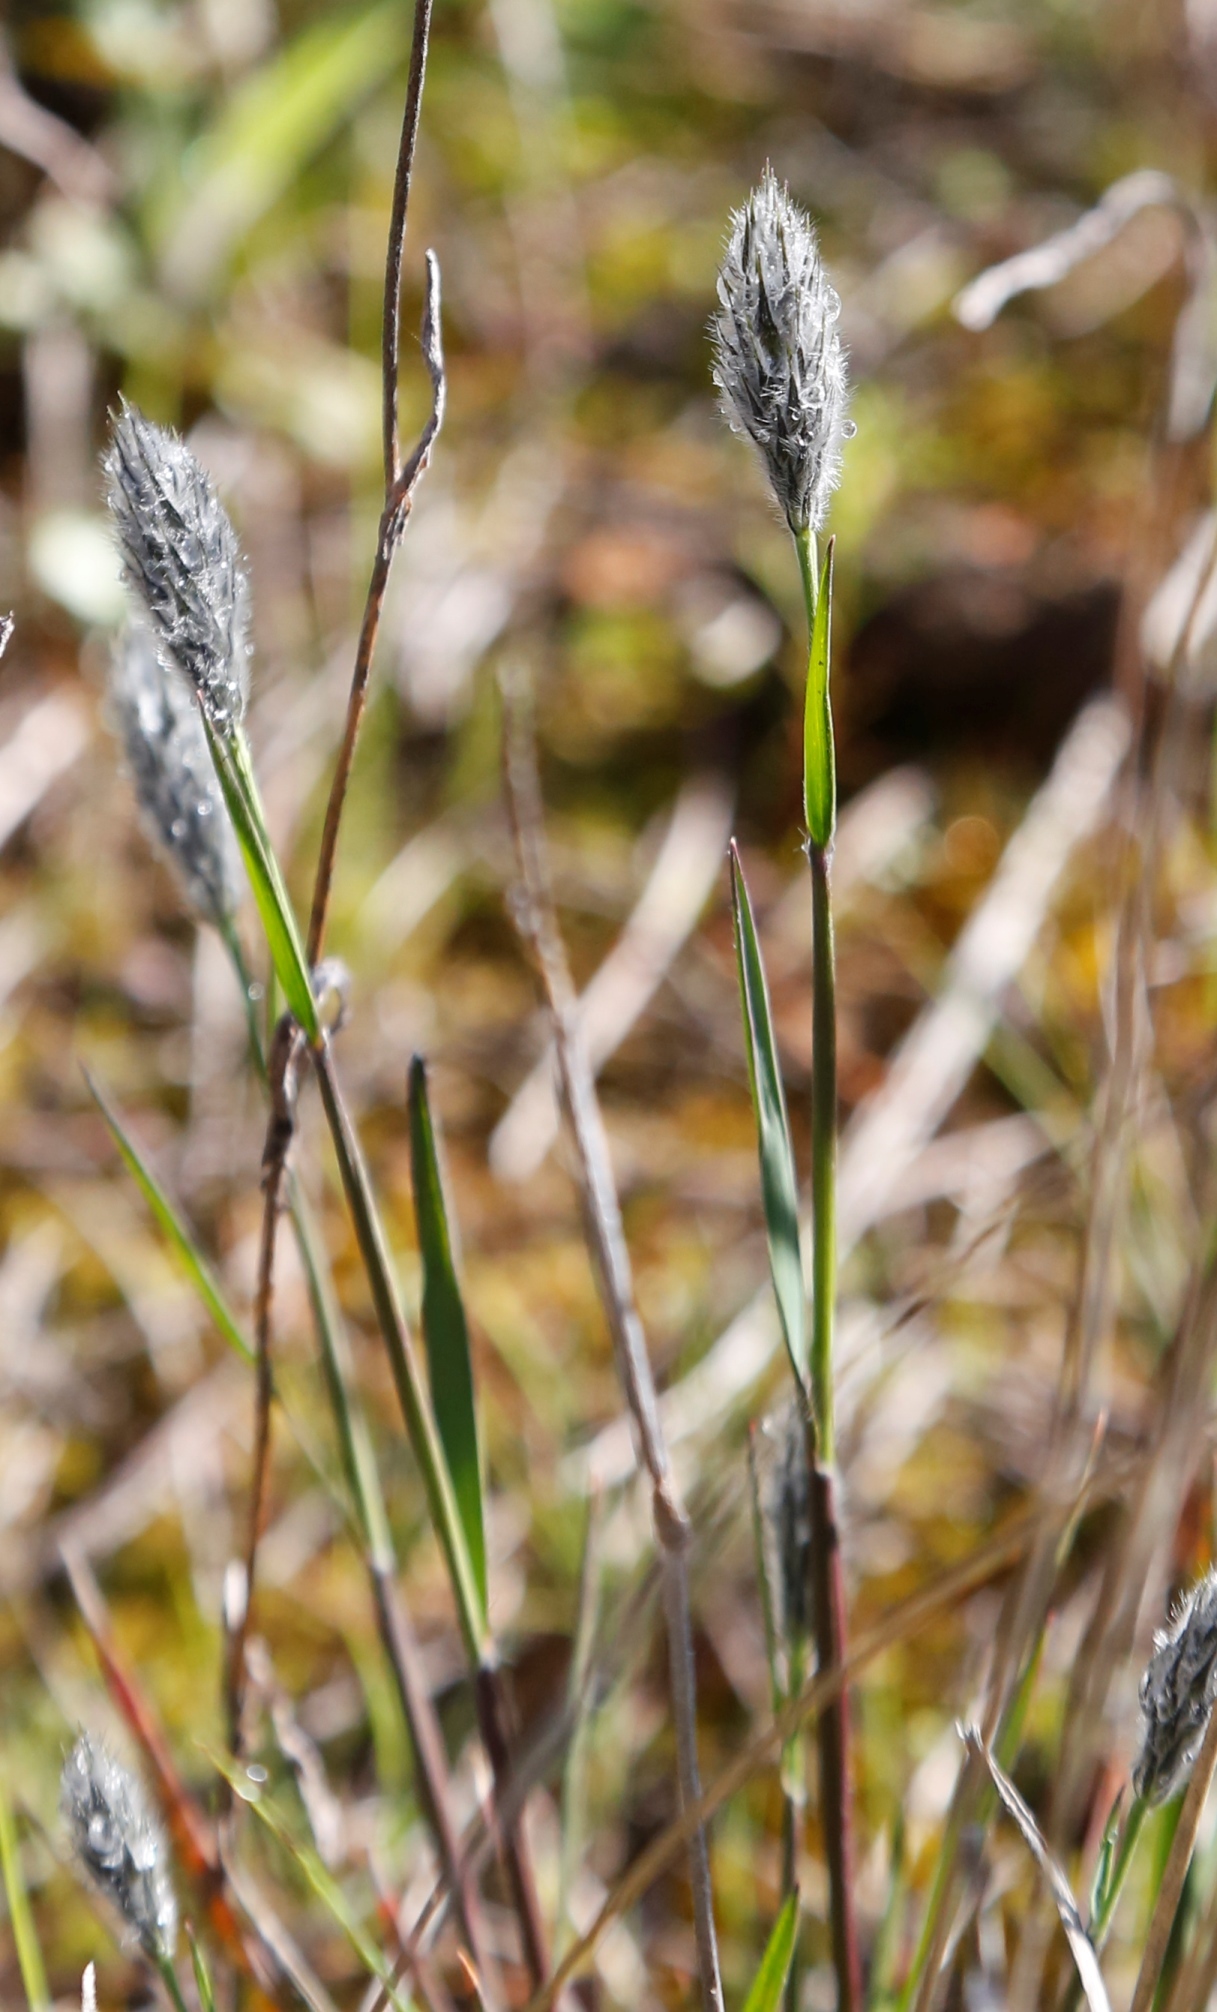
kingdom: Plantae
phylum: Tracheophyta
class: Liliopsida
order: Poales
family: Poaceae
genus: Neurachne
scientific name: Neurachne alopecuroidea
